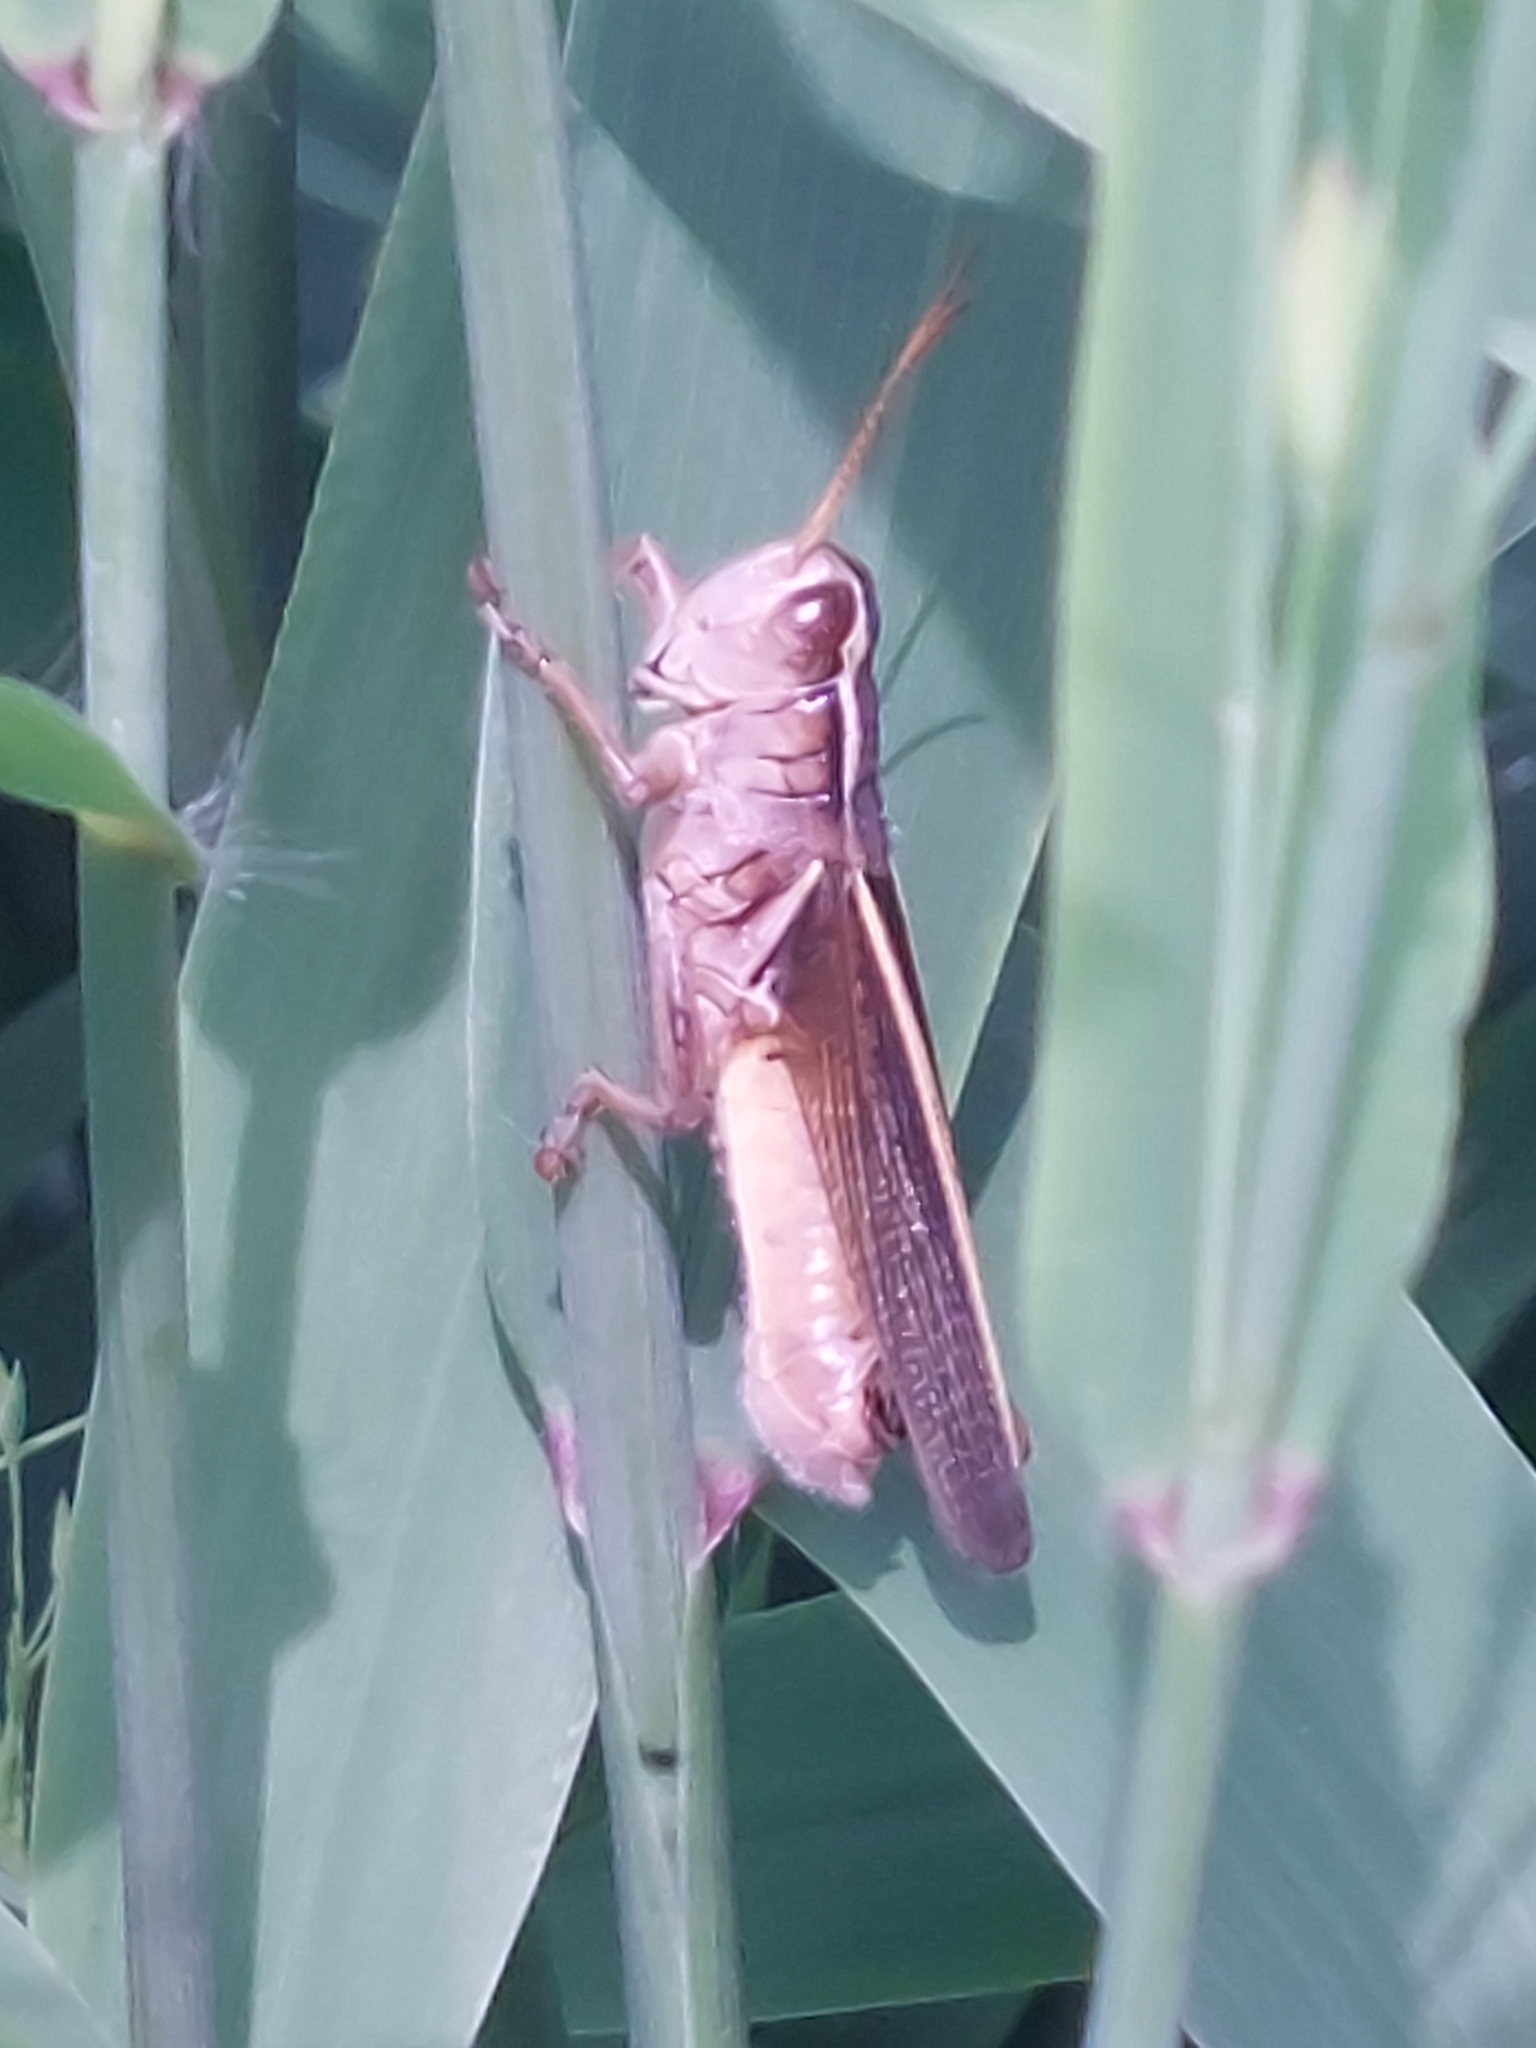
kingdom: Animalia
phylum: Arthropoda
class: Insecta
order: Orthoptera
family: Acrididae
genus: Melanoplus
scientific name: Melanoplus bivittatus
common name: Two-striped grasshopper
